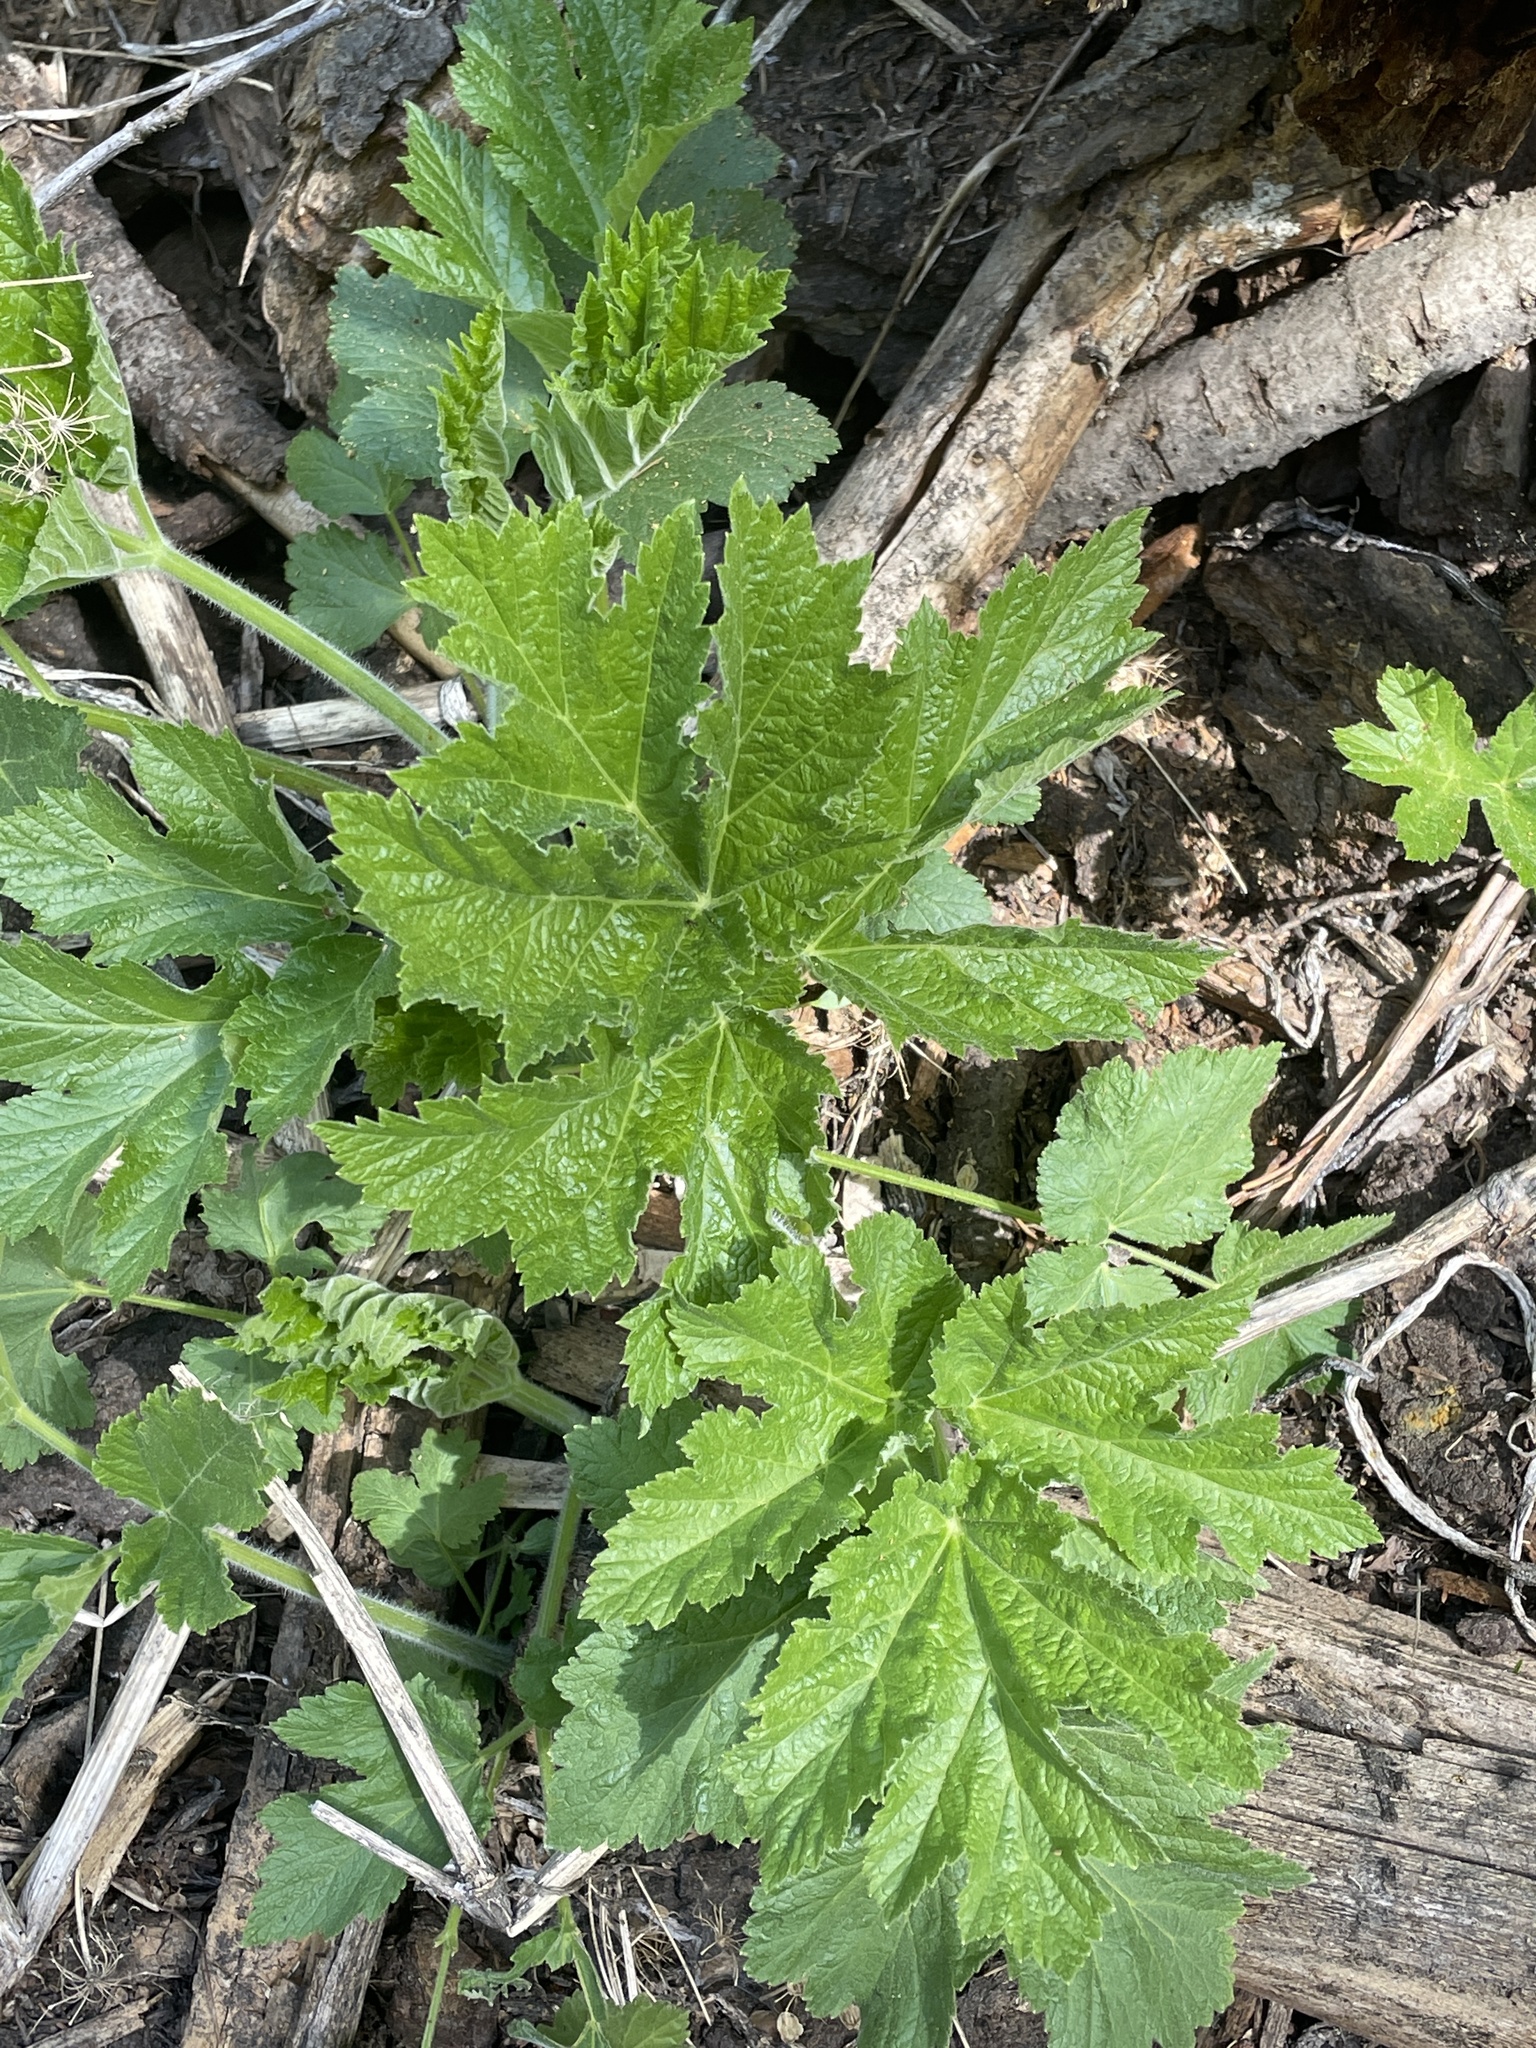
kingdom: Plantae
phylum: Tracheophyta
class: Magnoliopsida
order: Apiales
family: Apiaceae
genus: Heracleum
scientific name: Heracleum maximum
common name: American cow parsnip
